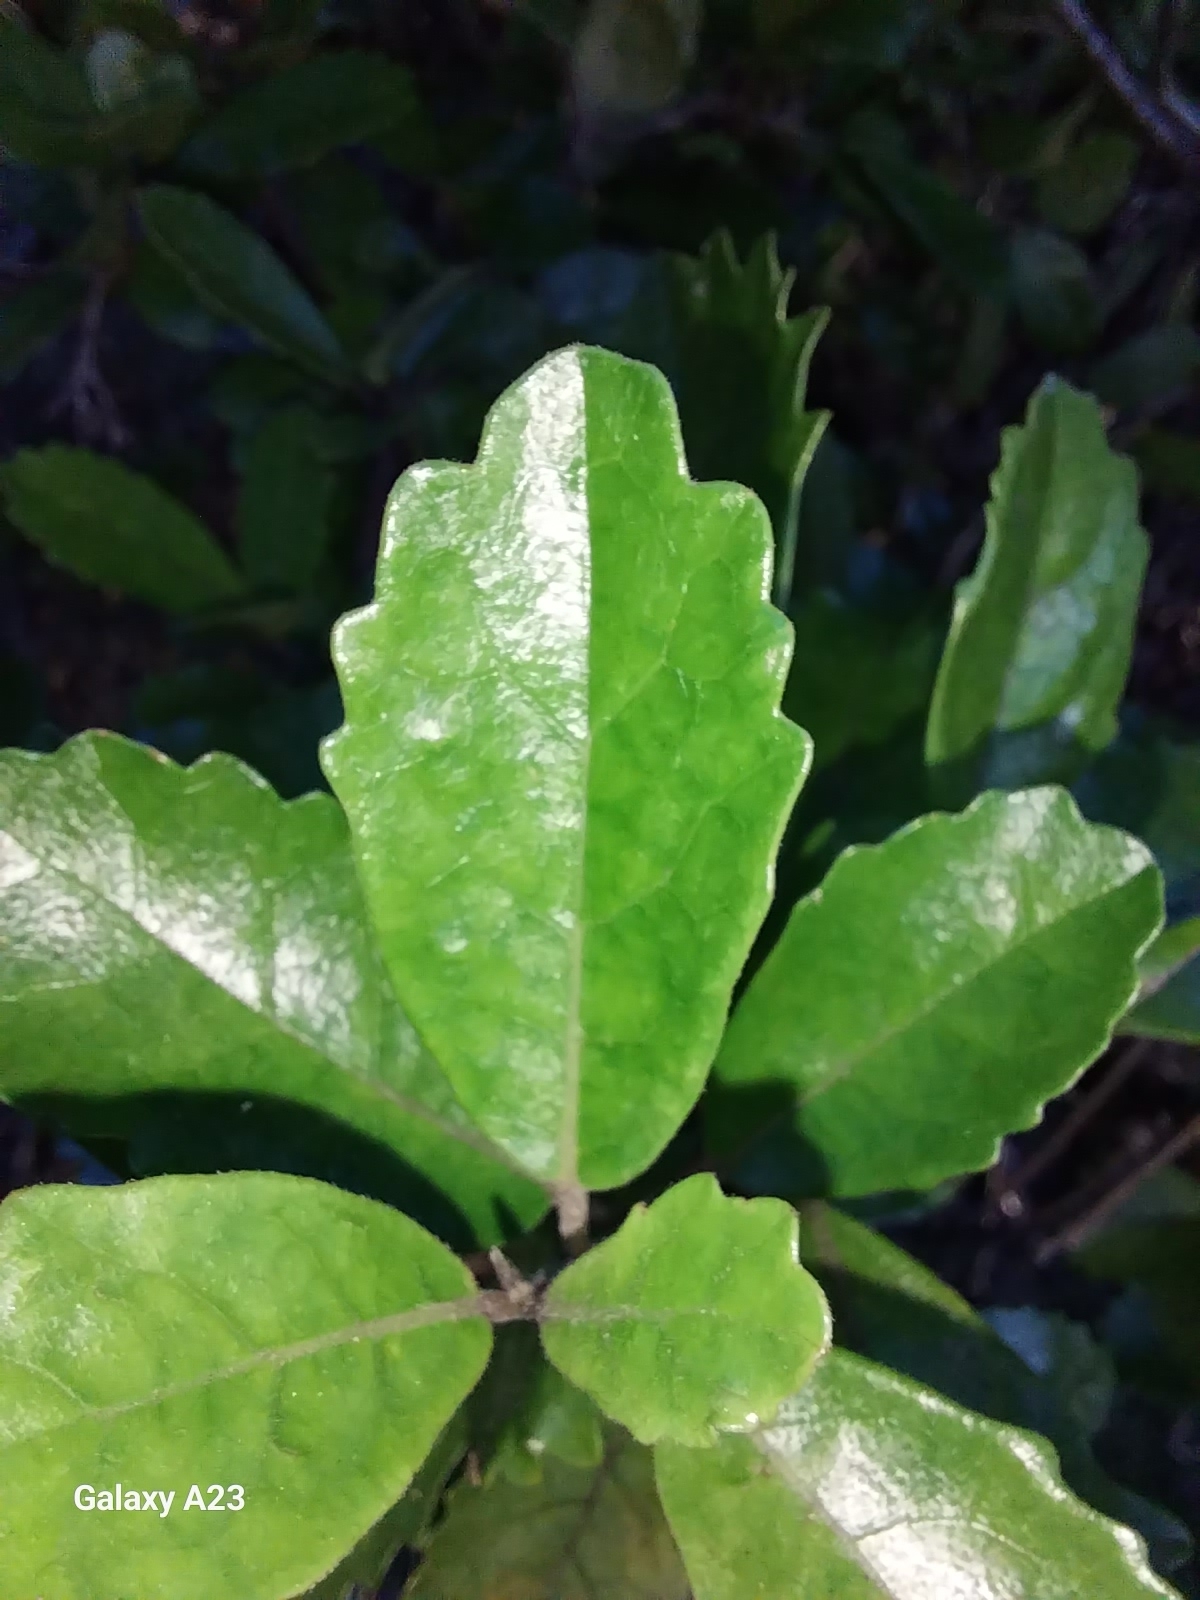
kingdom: Plantae
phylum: Tracheophyta
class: Magnoliopsida
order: Apiales
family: Pennantiaceae
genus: Pennantia
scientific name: Pennantia corymbosa
